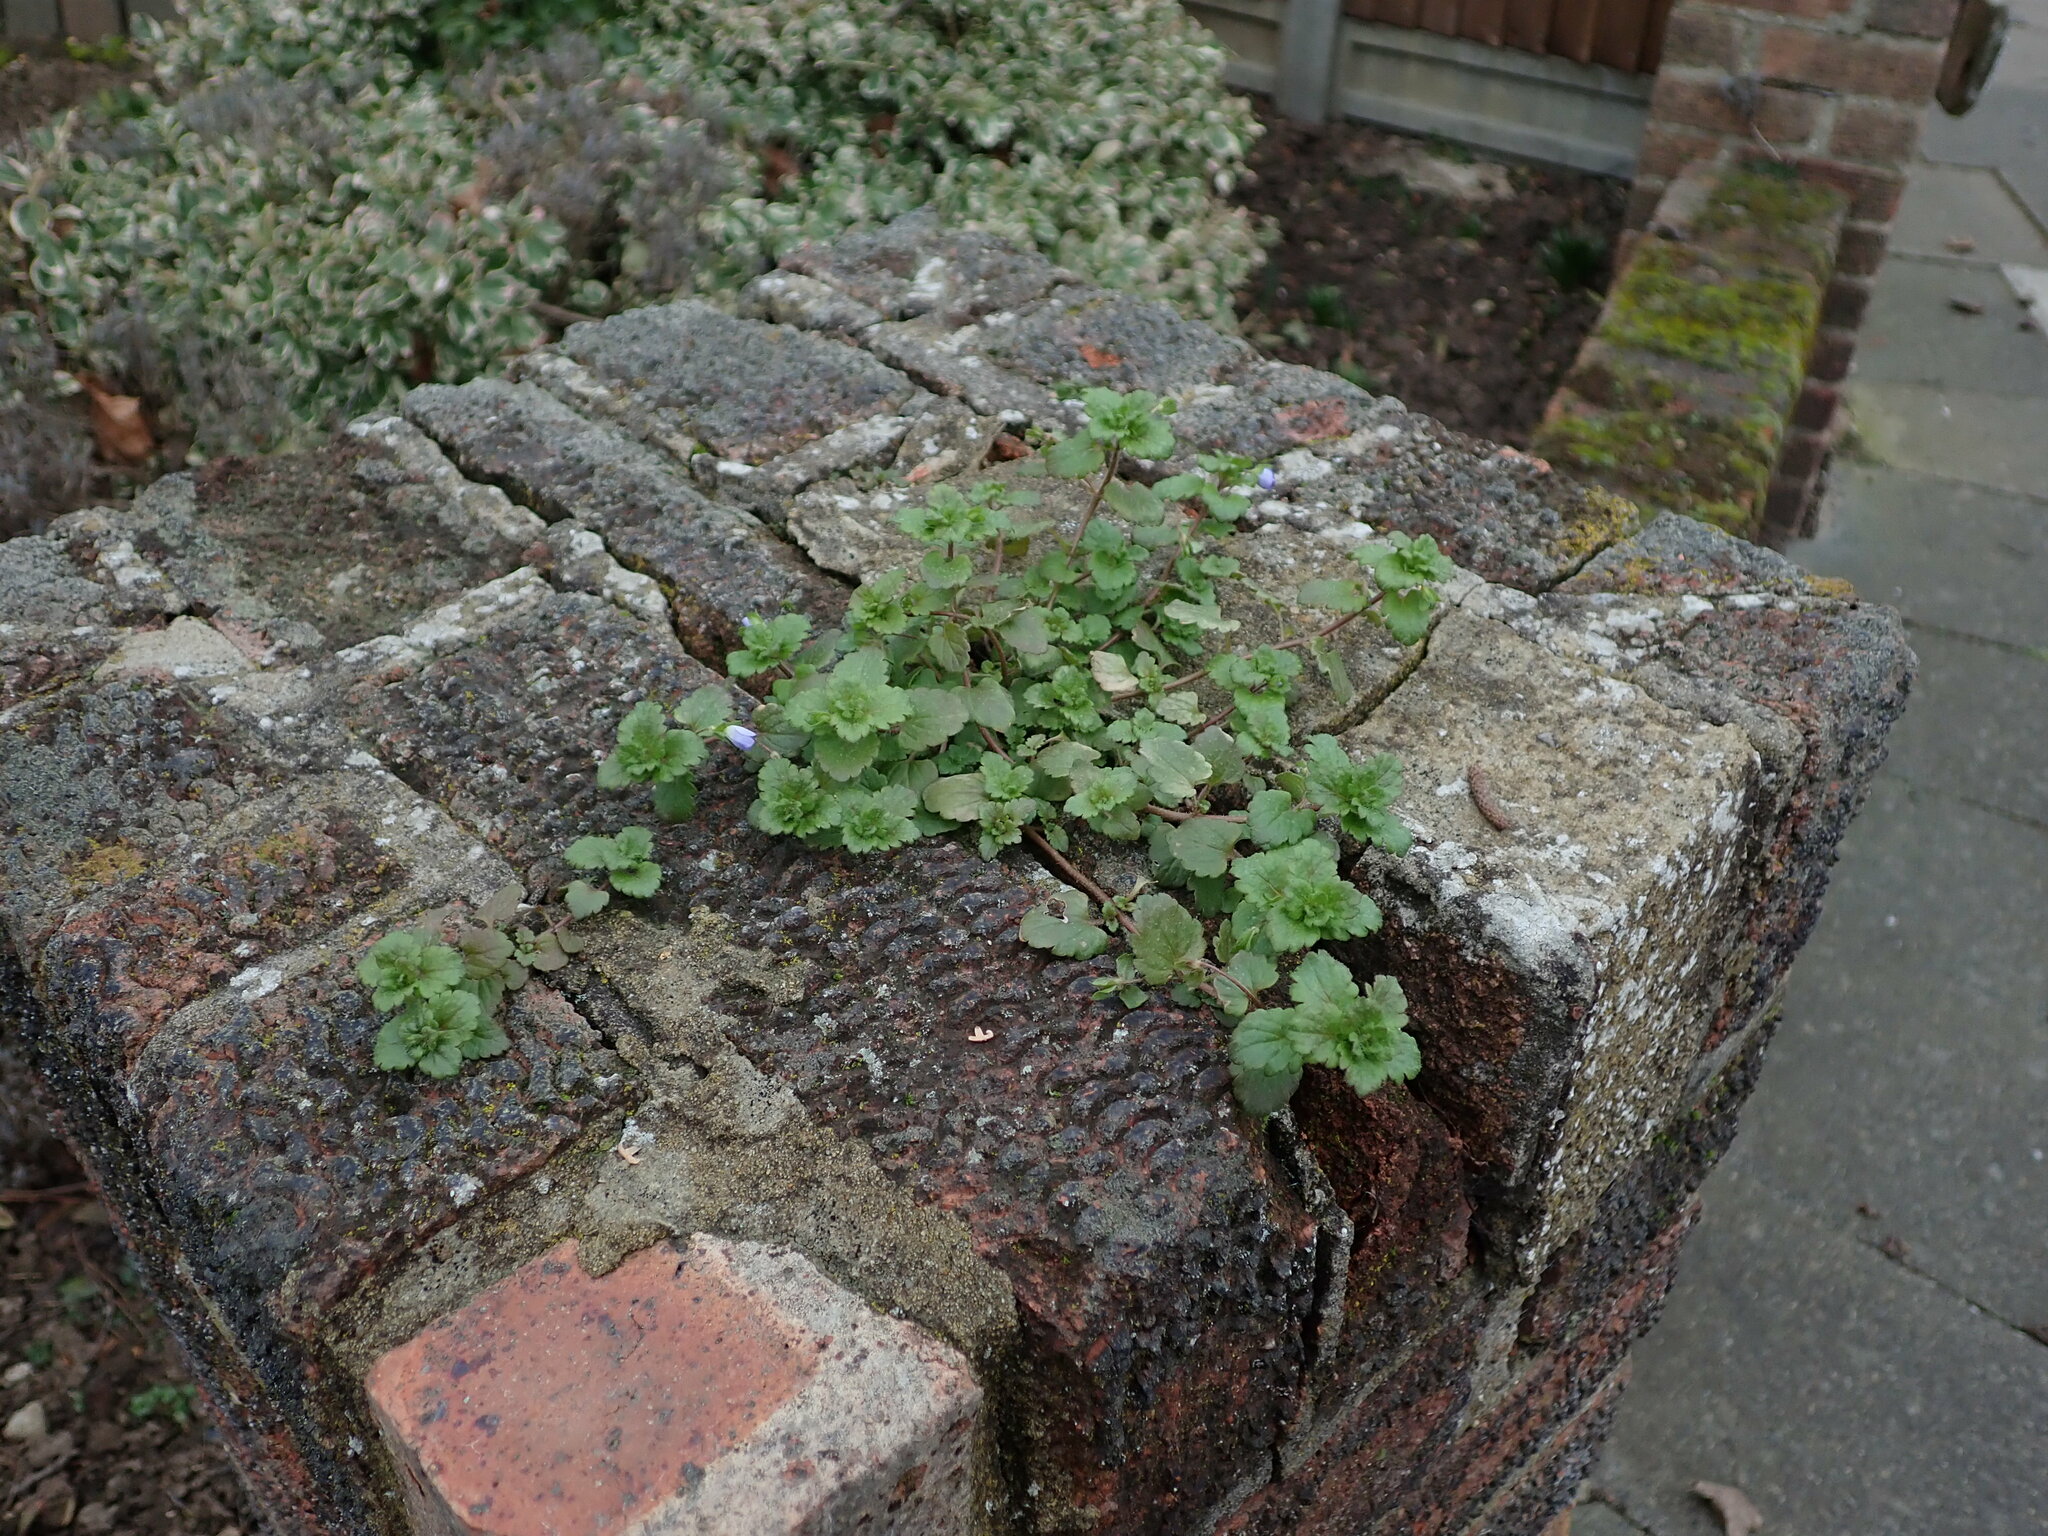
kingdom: Plantae
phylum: Tracheophyta
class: Magnoliopsida
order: Lamiales
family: Plantaginaceae
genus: Veronica
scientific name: Veronica persica
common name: Common field-speedwell
